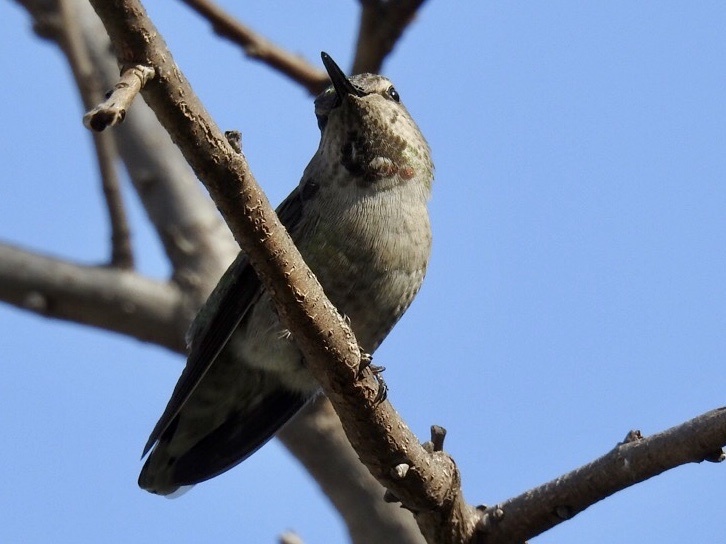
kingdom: Animalia
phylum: Chordata
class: Aves
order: Apodiformes
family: Trochilidae
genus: Calypte
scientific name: Calypte anna
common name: Anna's hummingbird
